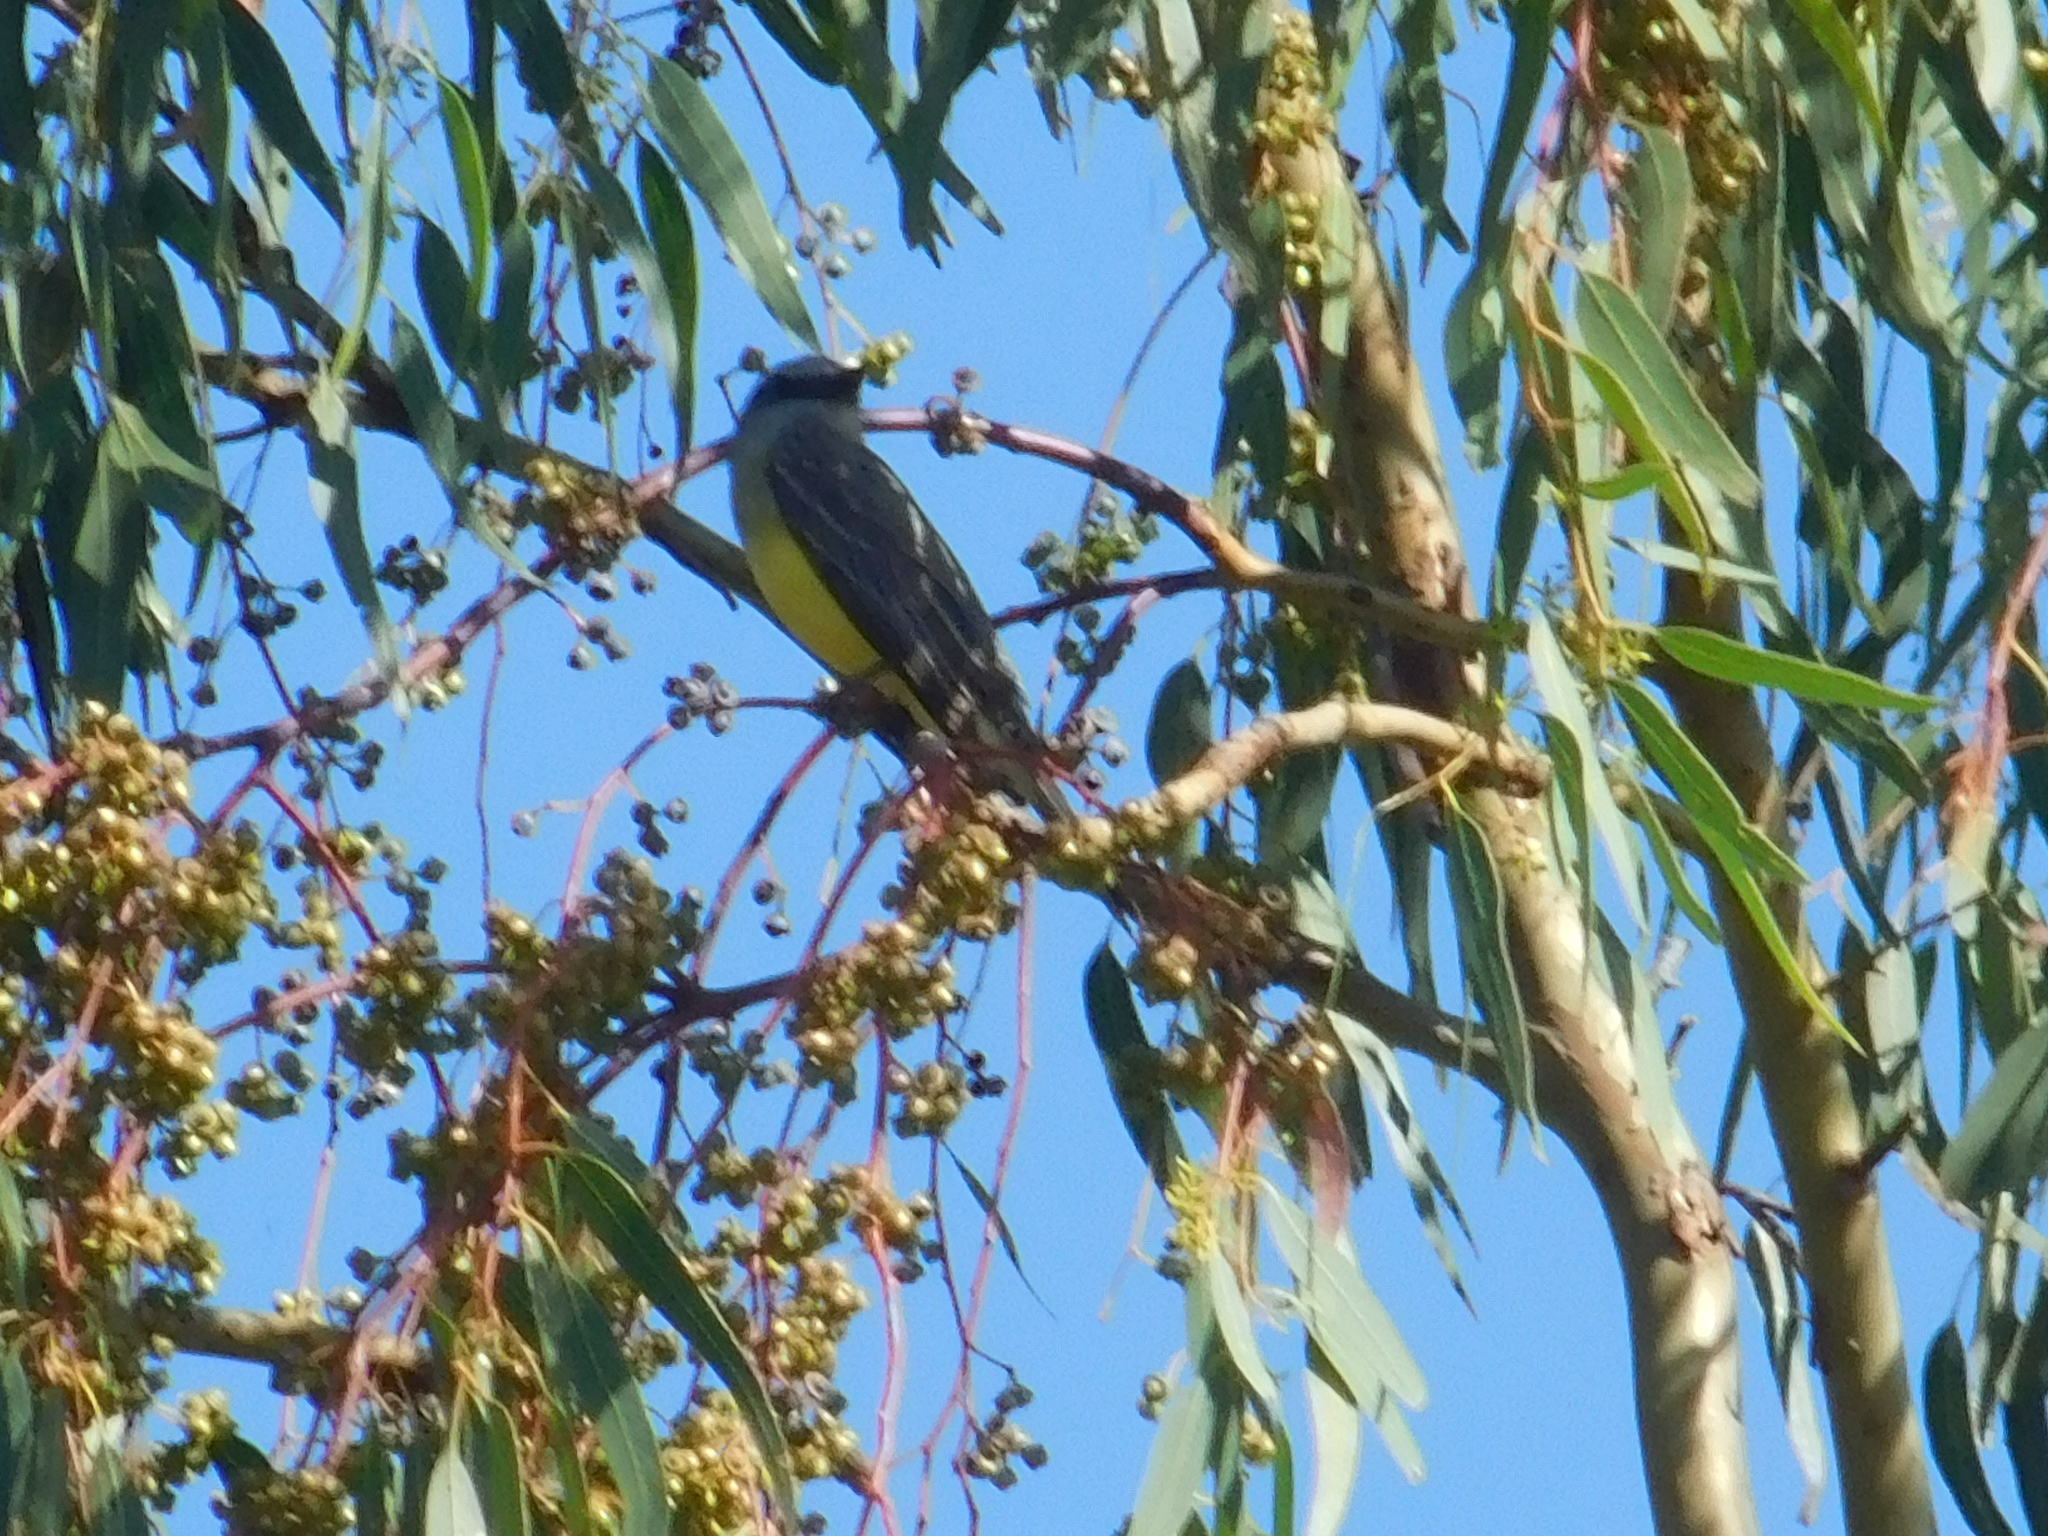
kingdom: Animalia
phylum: Chordata
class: Aves
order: Passeriformes
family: Tyrannidae
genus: Tyrannus
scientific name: Tyrannus melancholicus
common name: Tropical kingbird
